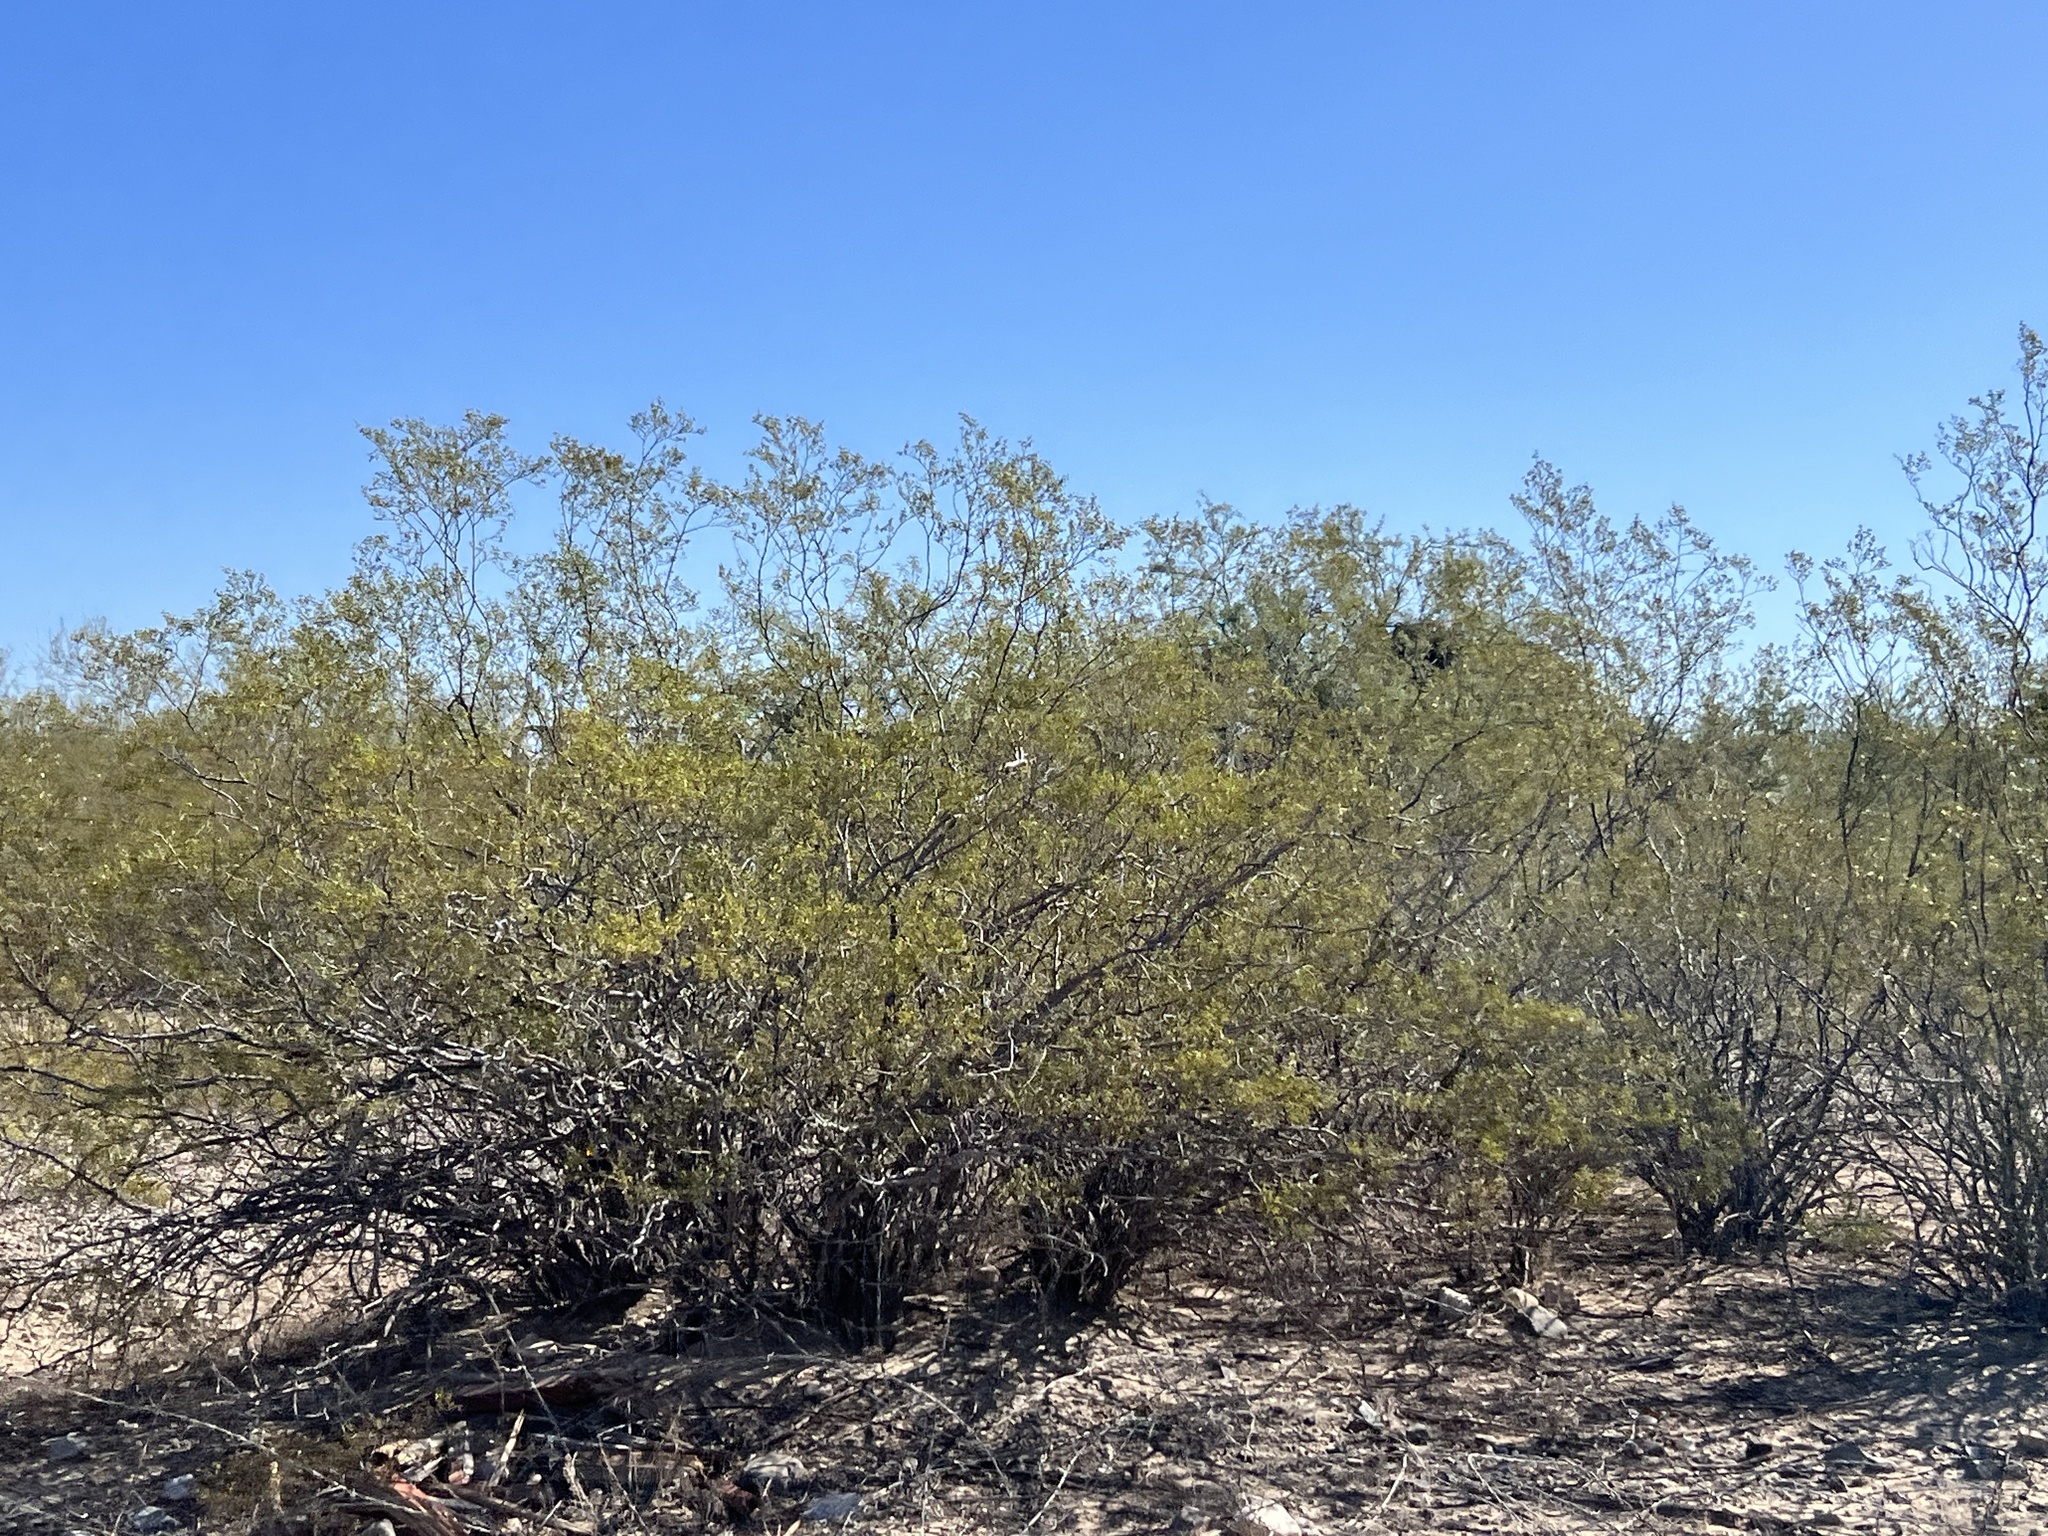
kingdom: Plantae
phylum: Tracheophyta
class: Magnoliopsida
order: Zygophyllales
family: Zygophyllaceae
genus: Larrea
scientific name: Larrea tridentata
